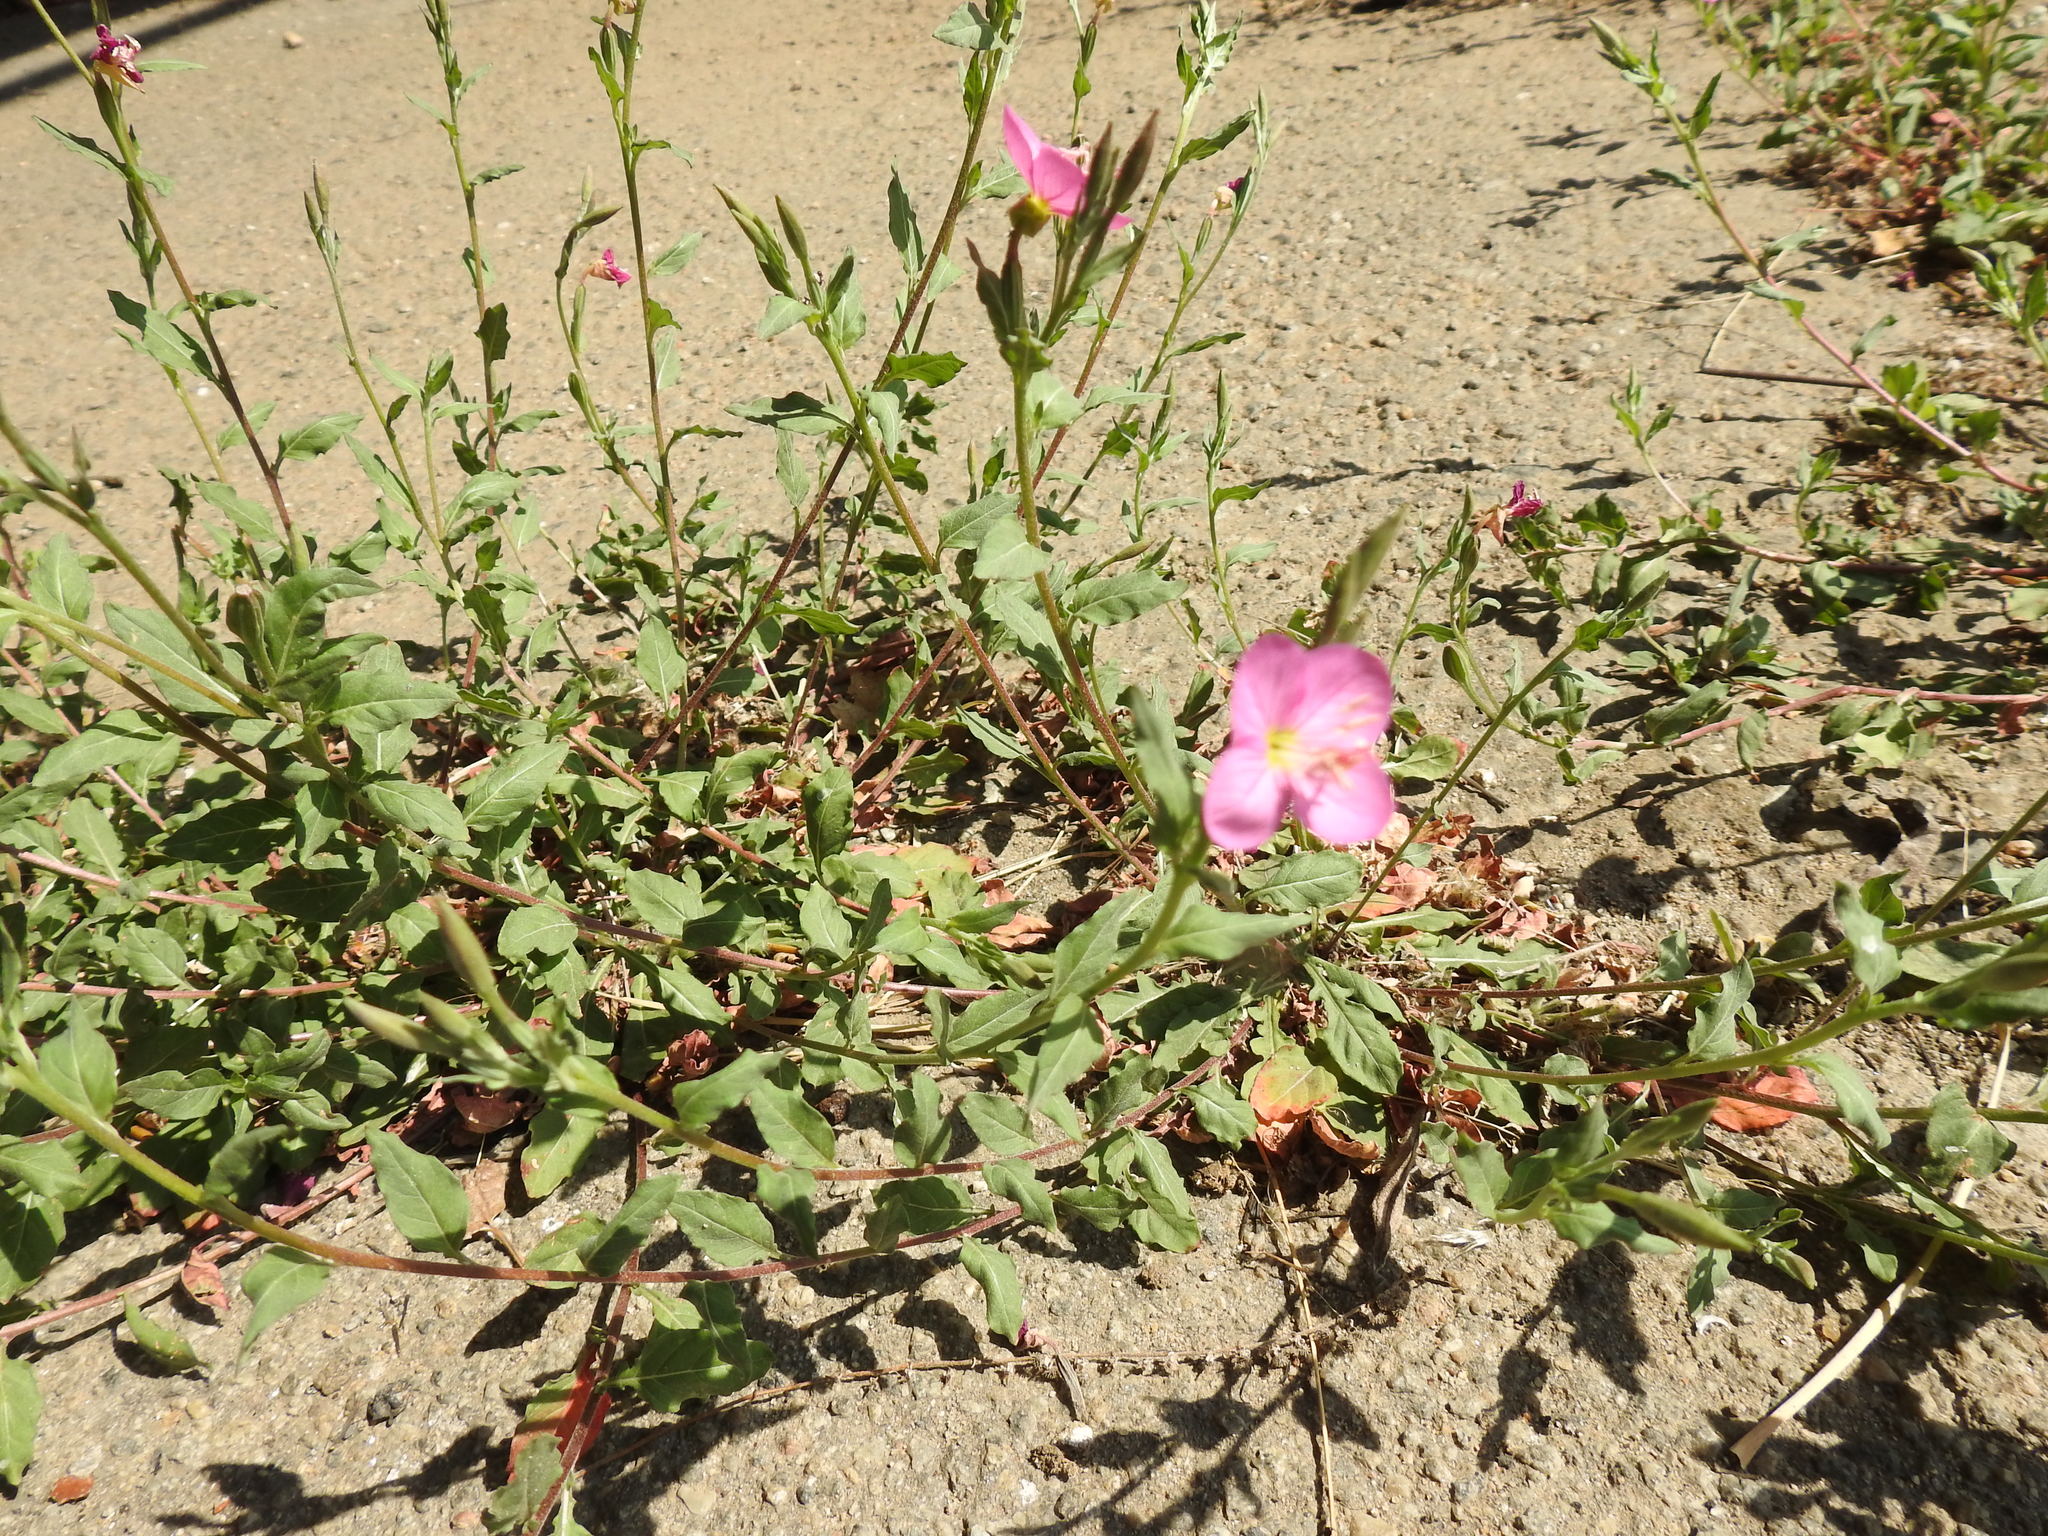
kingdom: Plantae
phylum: Tracheophyta
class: Magnoliopsida
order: Myrtales
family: Onagraceae
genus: Oenothera
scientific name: Oenothera rosea
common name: Rosy evening-primrose
